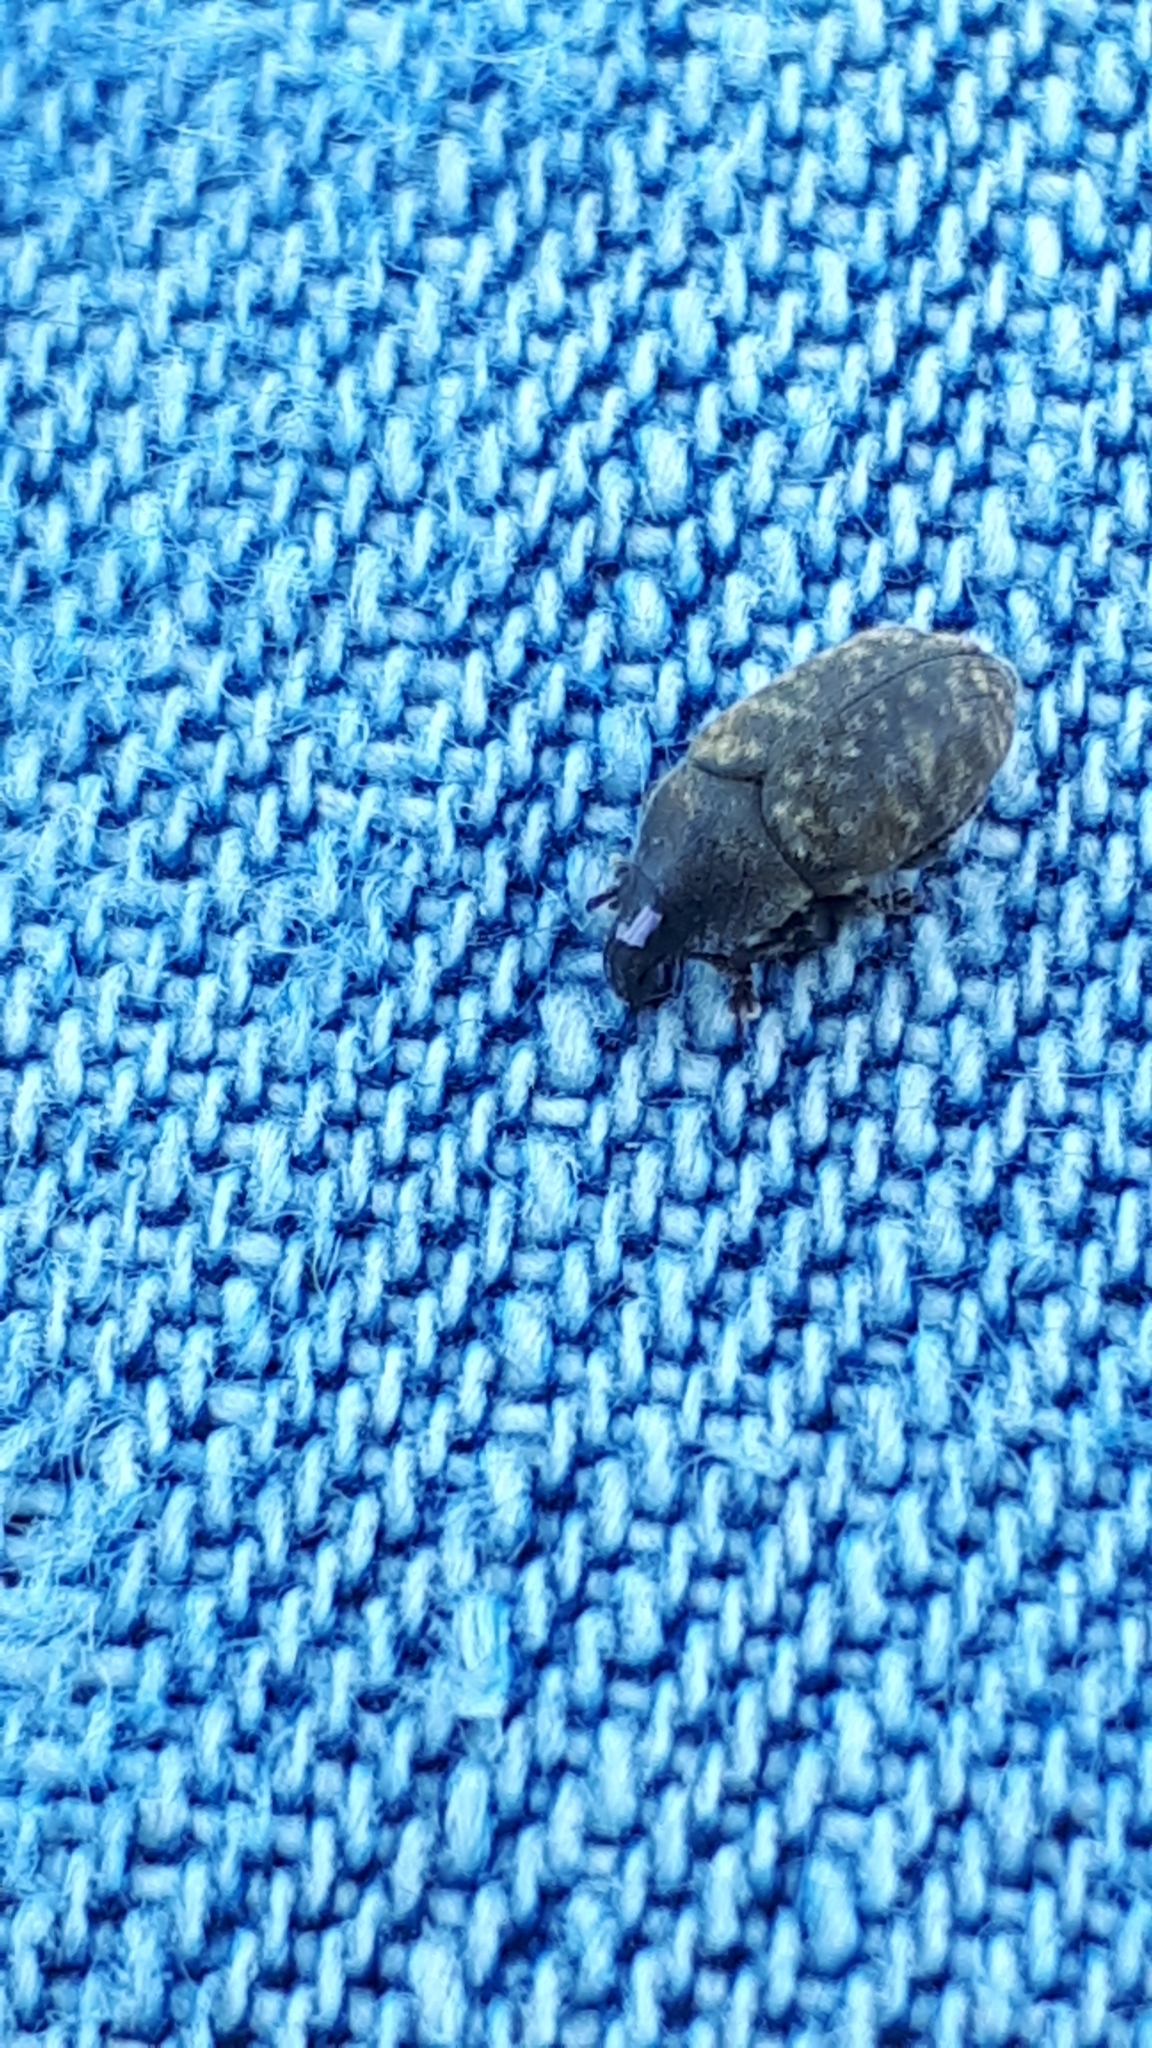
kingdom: Animalia
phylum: Arthropoda
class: Insecta
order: Coleoptera
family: Curculionidae
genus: Larinus
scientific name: Larinus obtusus
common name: Weevil
